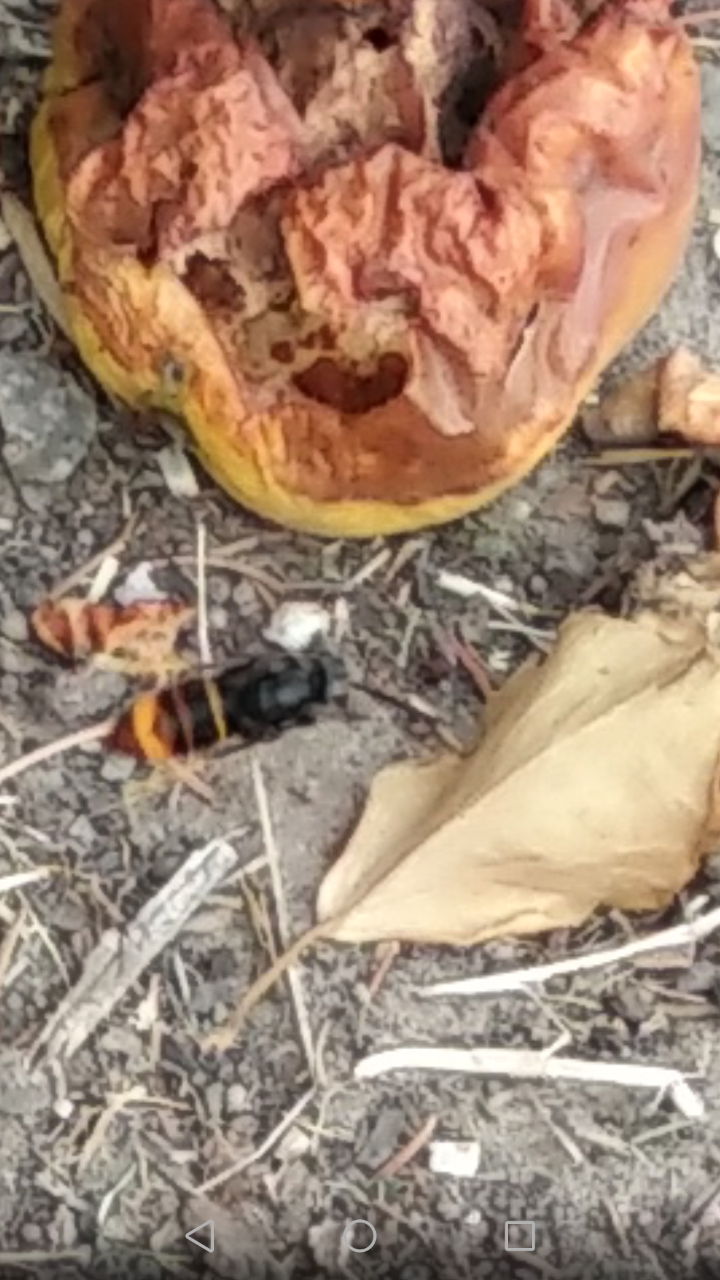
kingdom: Animalia
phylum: Arthropoda
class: Insecta
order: Hymenoptera
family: Vespidae
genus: Vespa
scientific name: Vespa velutina
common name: Asian hornet
